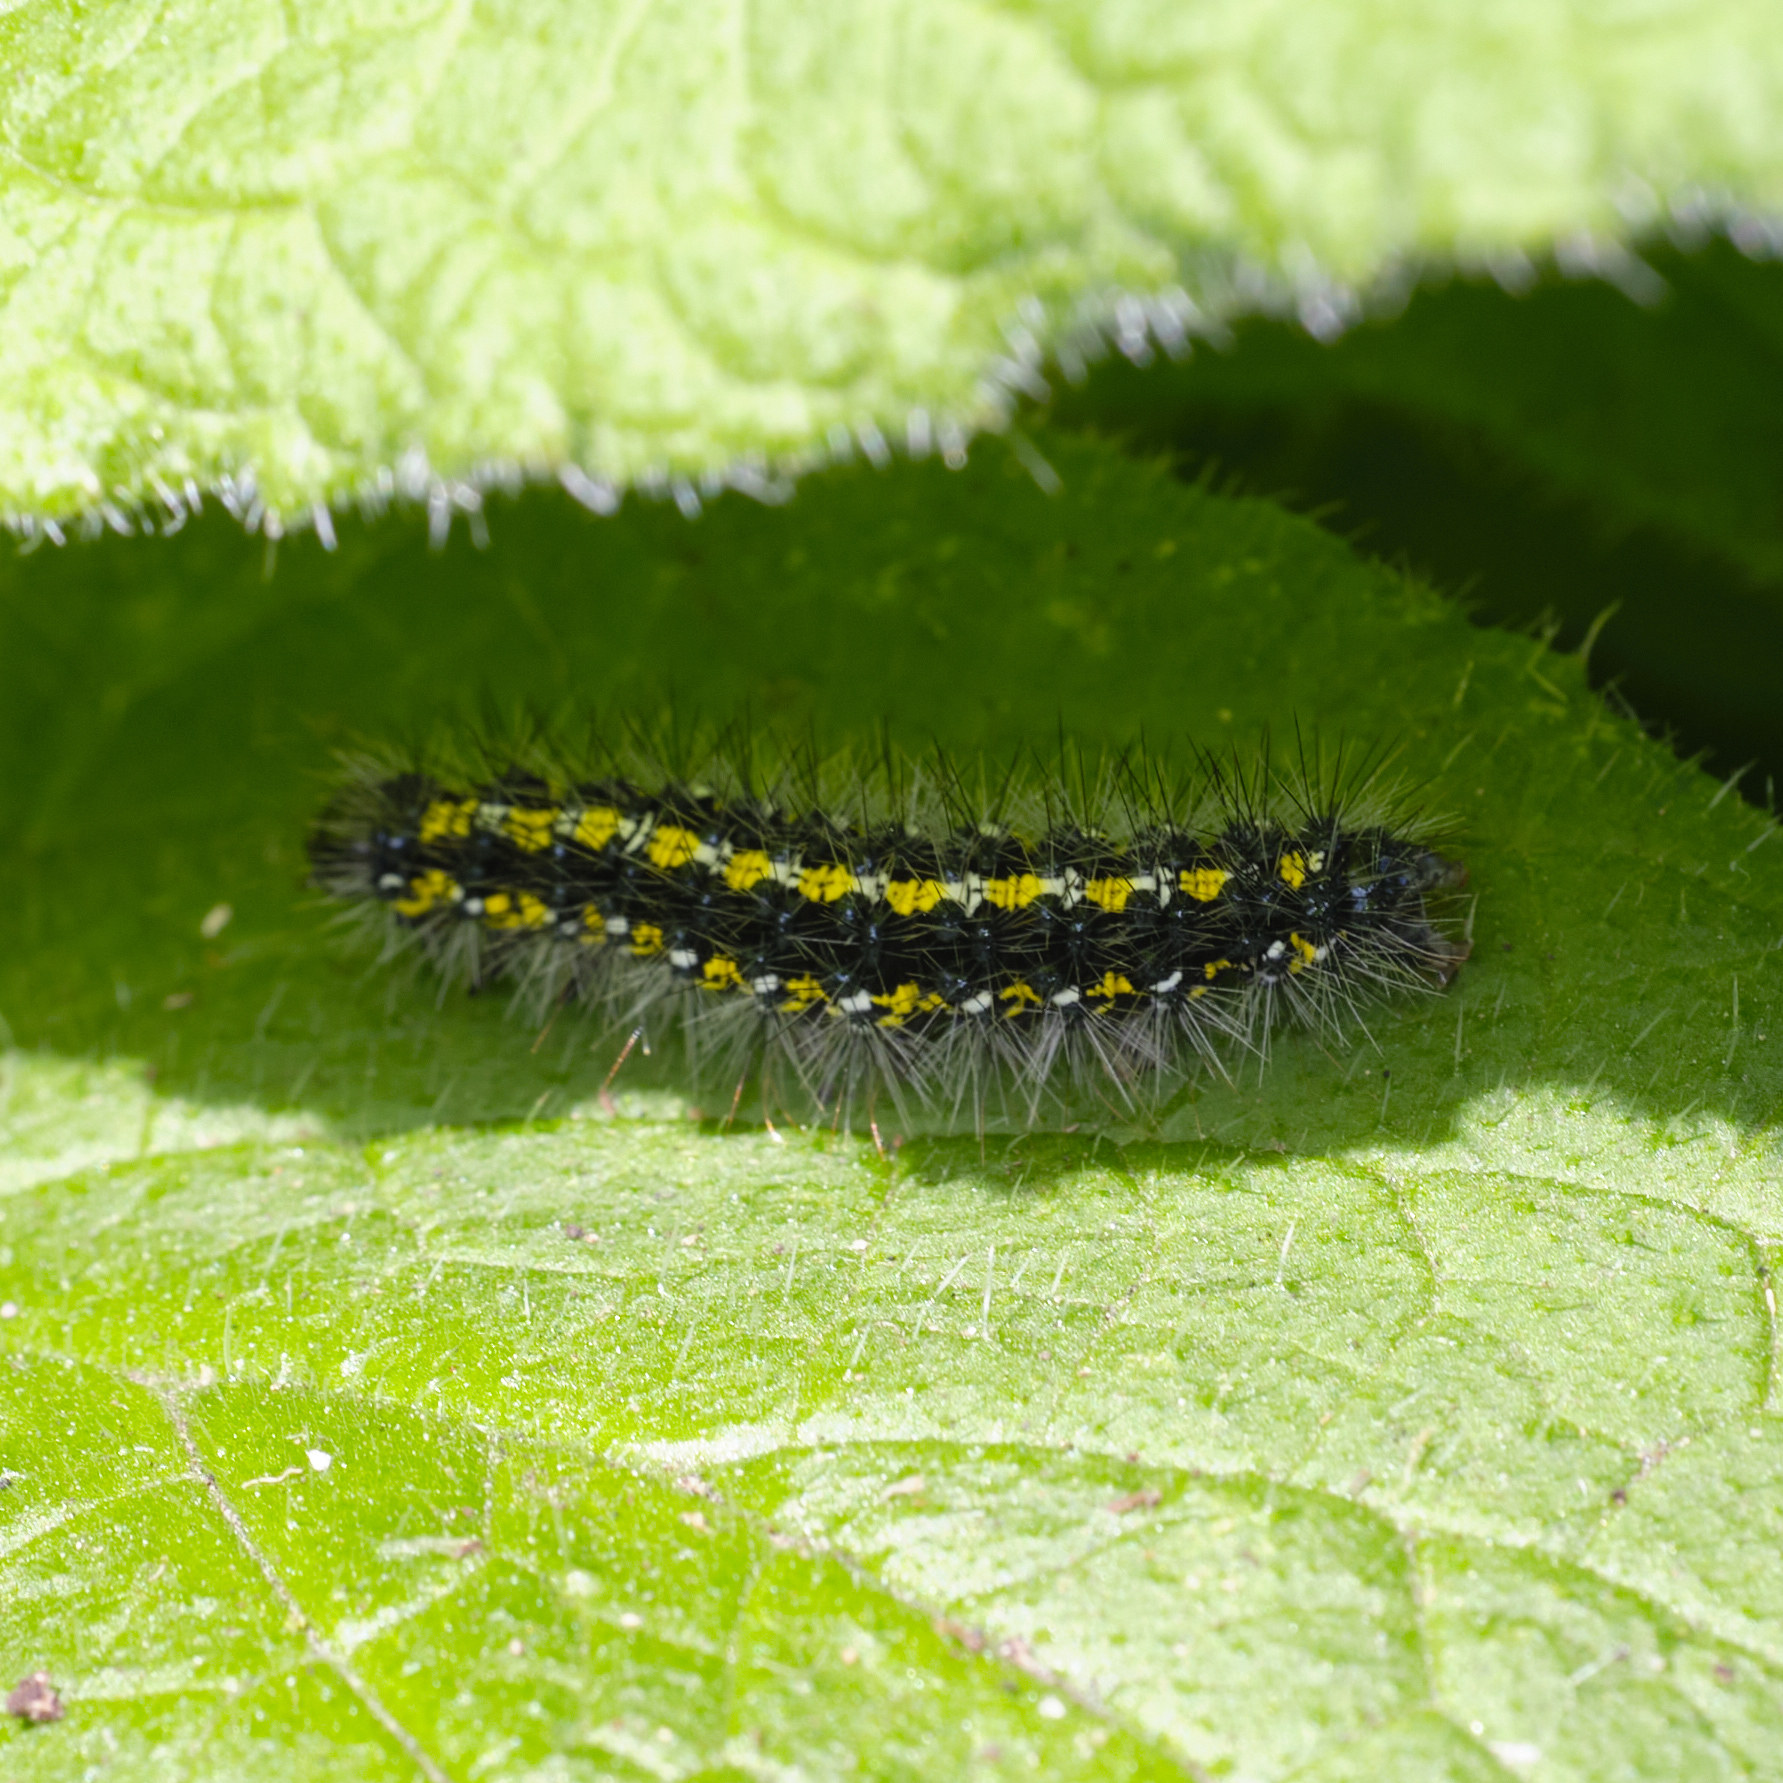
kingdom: Animalia
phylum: Arthropoda
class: Insecta
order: Lepidoptera
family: Erebidae
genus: Callimorpha
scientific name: Callimorpha dominula
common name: Scarlet tiger
